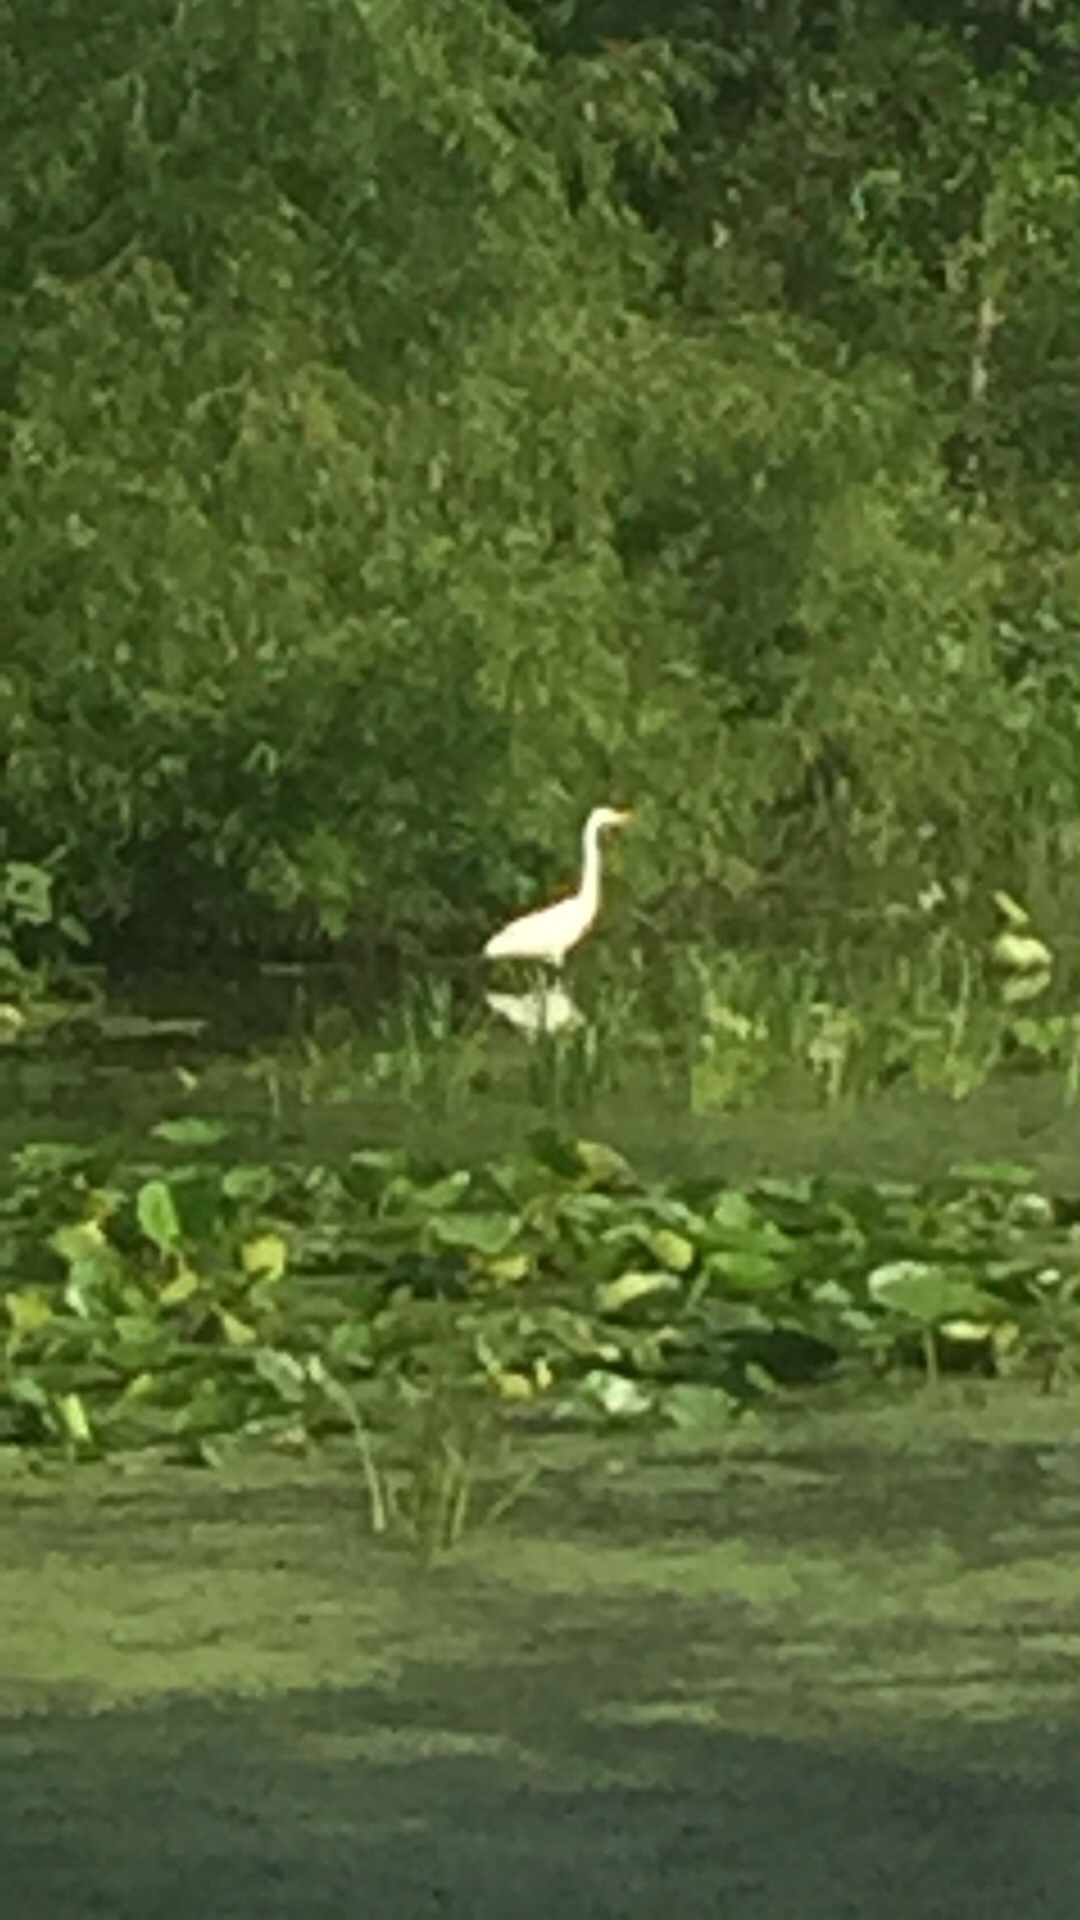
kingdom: Animalia
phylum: Chordata
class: Aves
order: Pelecaniformes
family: Ardeidae
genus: Ardea
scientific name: Ardea alba
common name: Great egret
